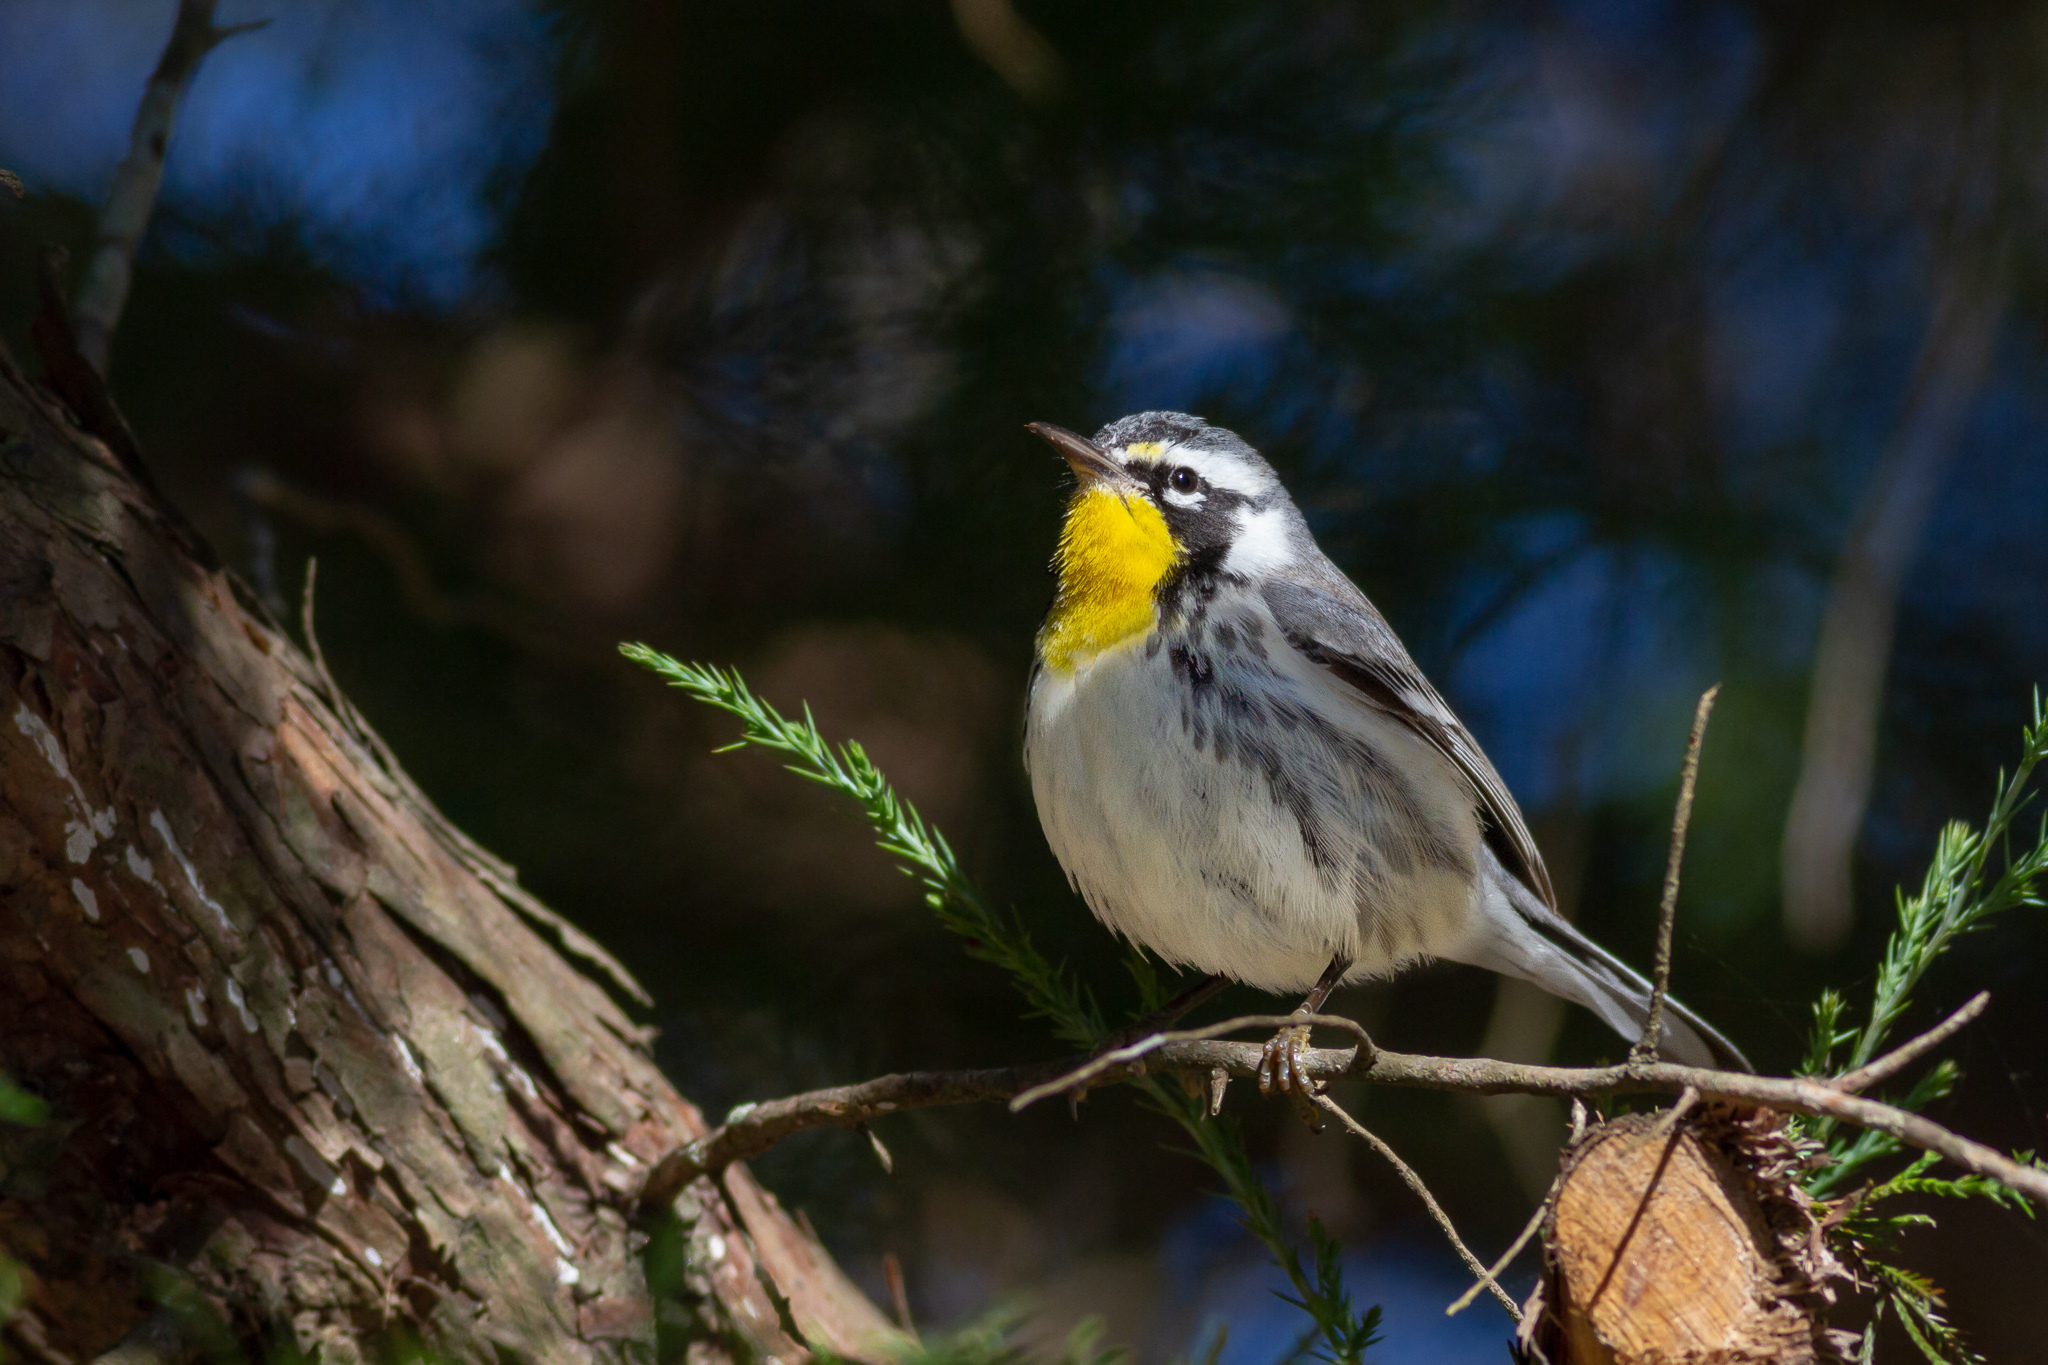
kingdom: Animalia
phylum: Chordata
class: Aves
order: Passeriformes
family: Parulidae
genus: Setophaga
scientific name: Setophaga dominica
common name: Yellow-throated warbler
